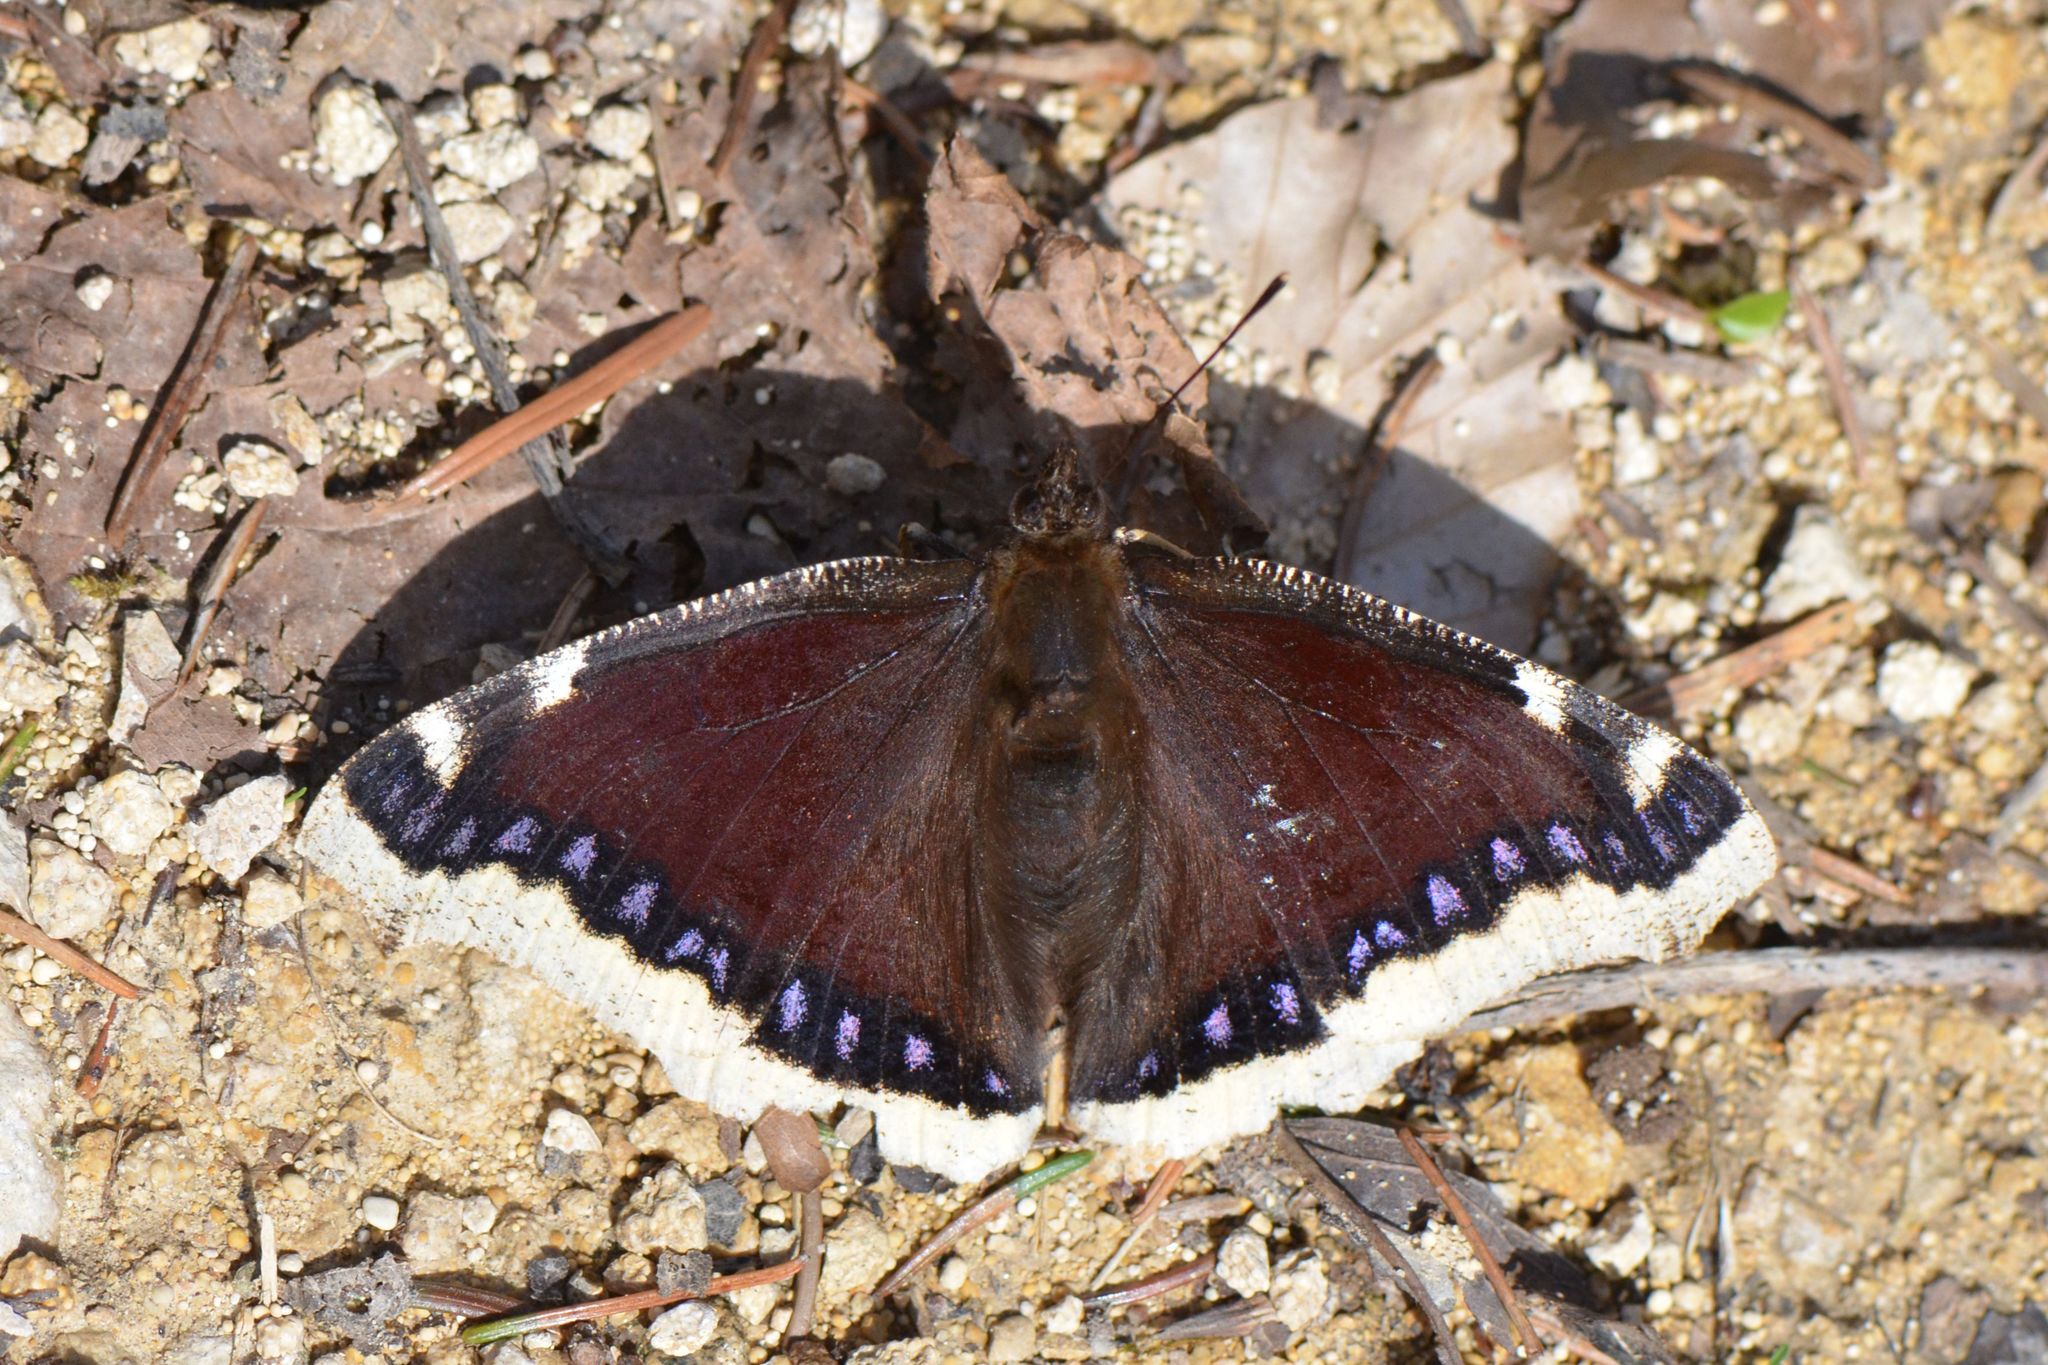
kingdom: Animalia
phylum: Arthropoda
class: Insecta
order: Lepidoptera
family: Nymphalidae
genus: Nymphalis
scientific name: Nymphalis antiopa
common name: Camberwell beauty
